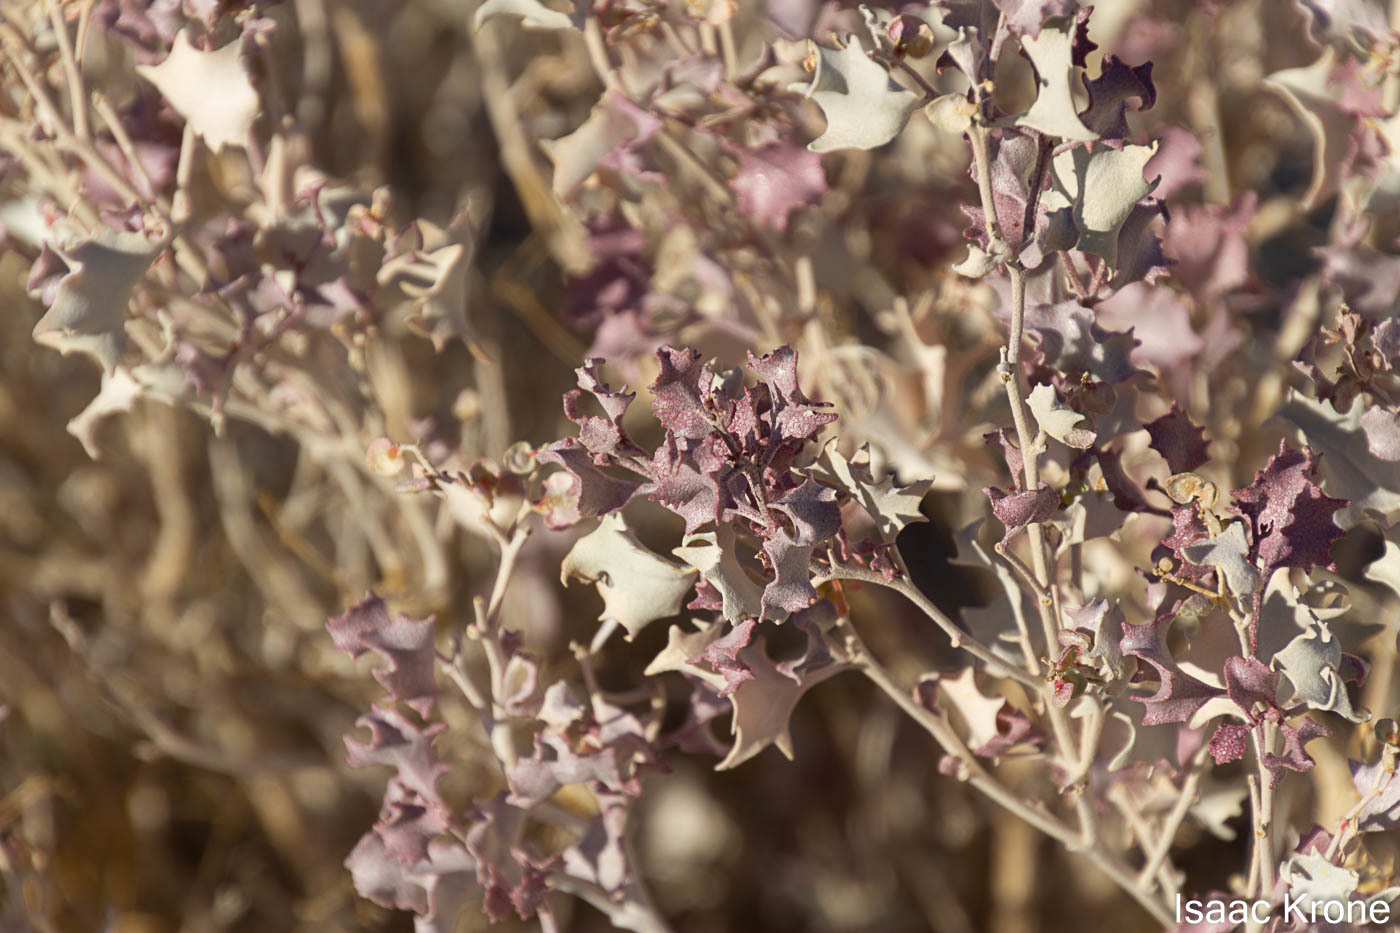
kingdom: Plantae
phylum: Tracheophyta
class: Magnoliopsida
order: Caryophyllales
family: Amaranthaceae
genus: Atriplex
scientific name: Atriplex hymenelytra
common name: Desert-holly
